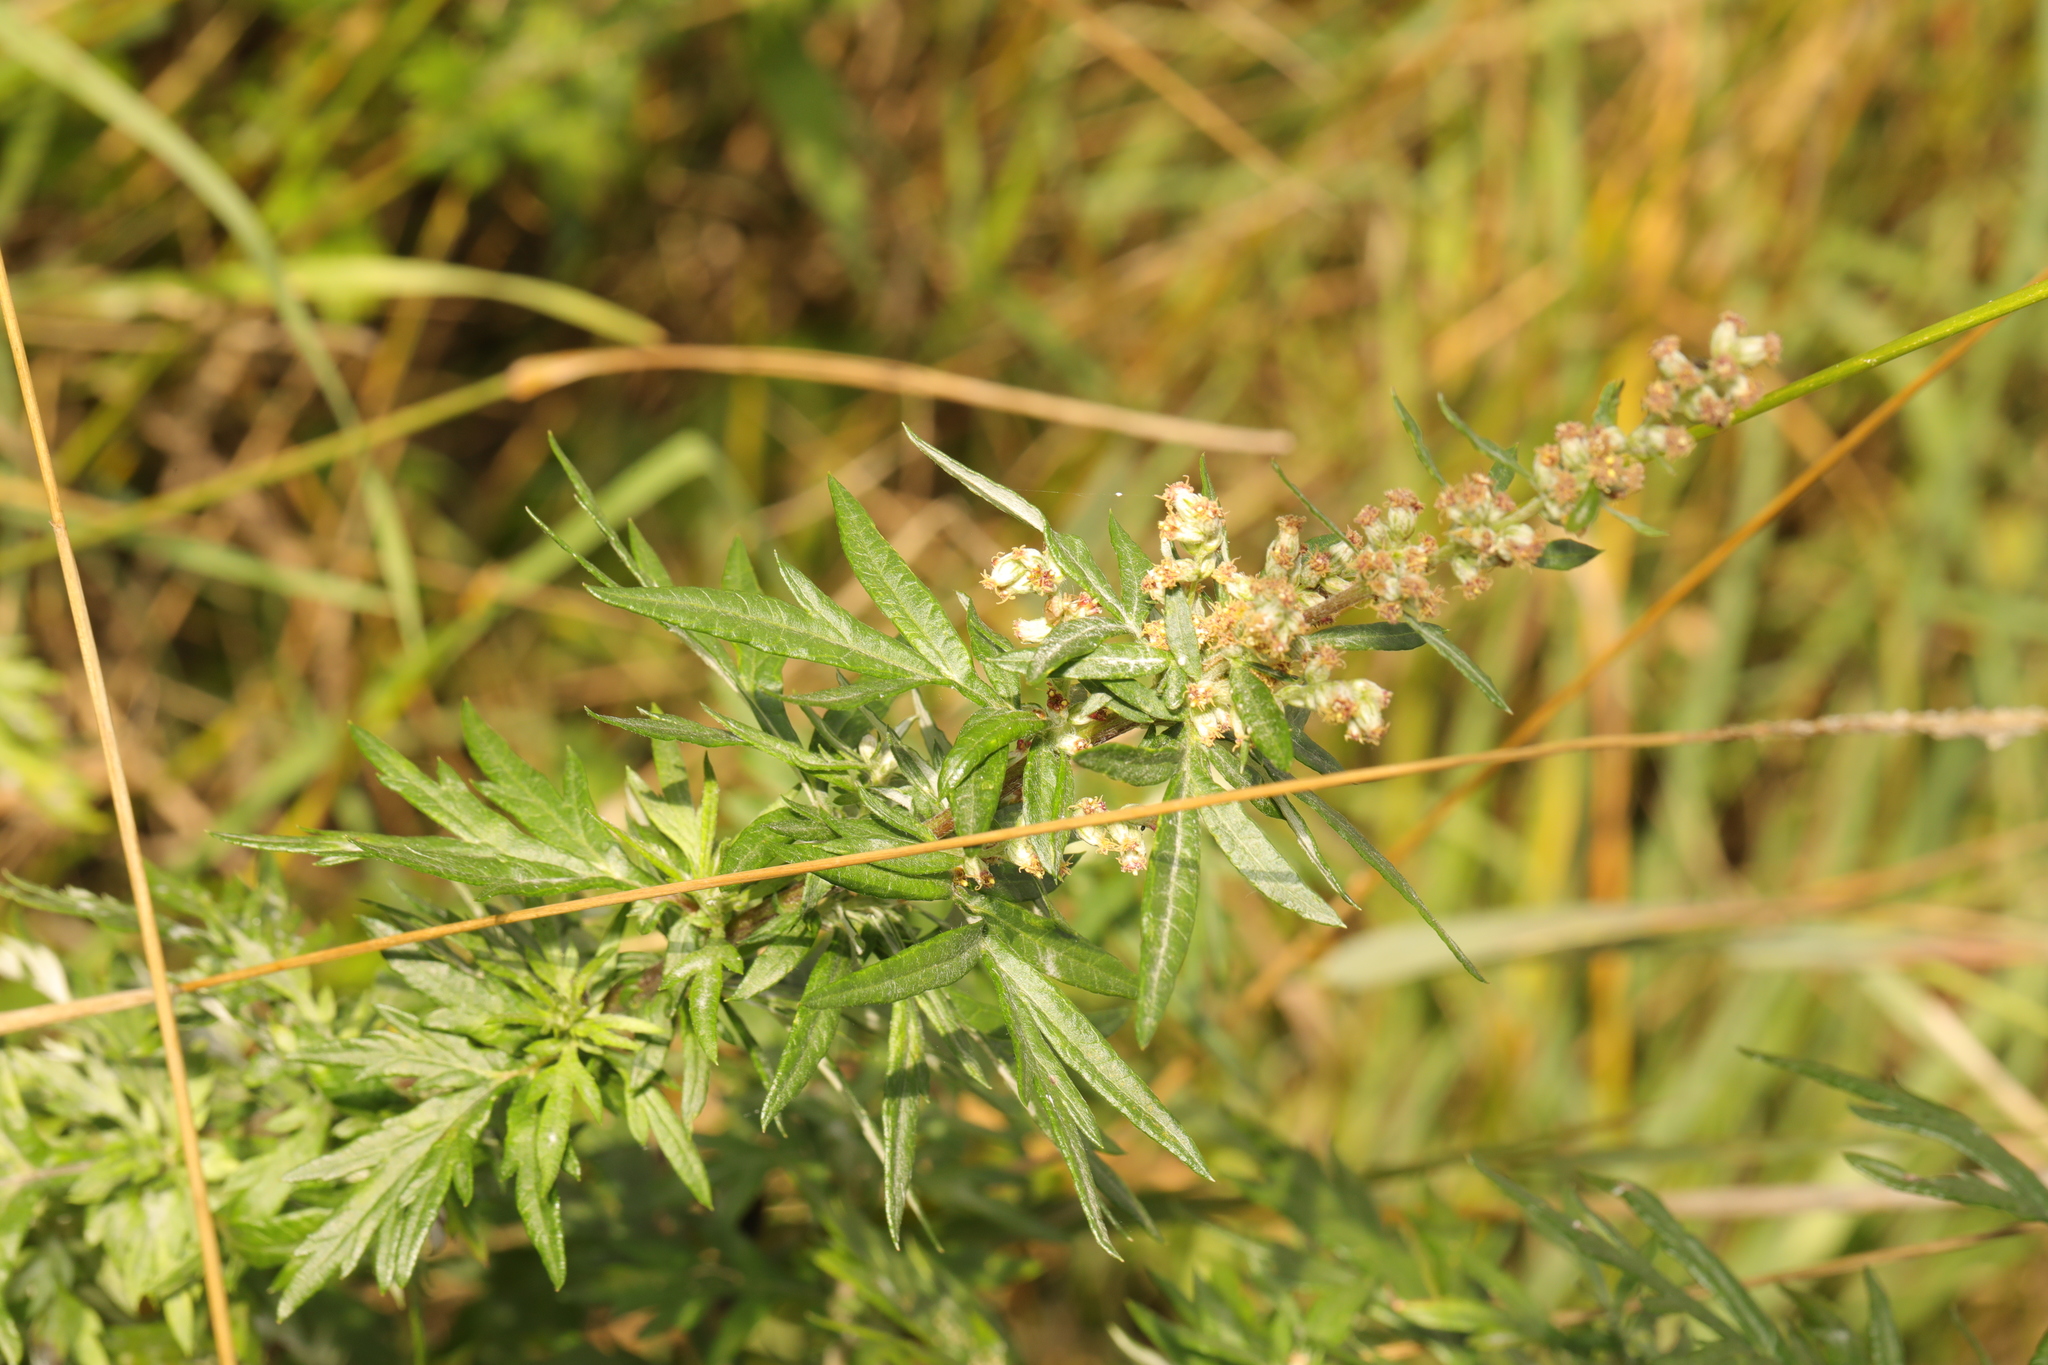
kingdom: Plantae
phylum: Tracheophyta
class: Magnoliopsida
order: Asterales
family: Asteraceae
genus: Artemisia
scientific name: Artemisia vulgaris
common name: Mugwort
